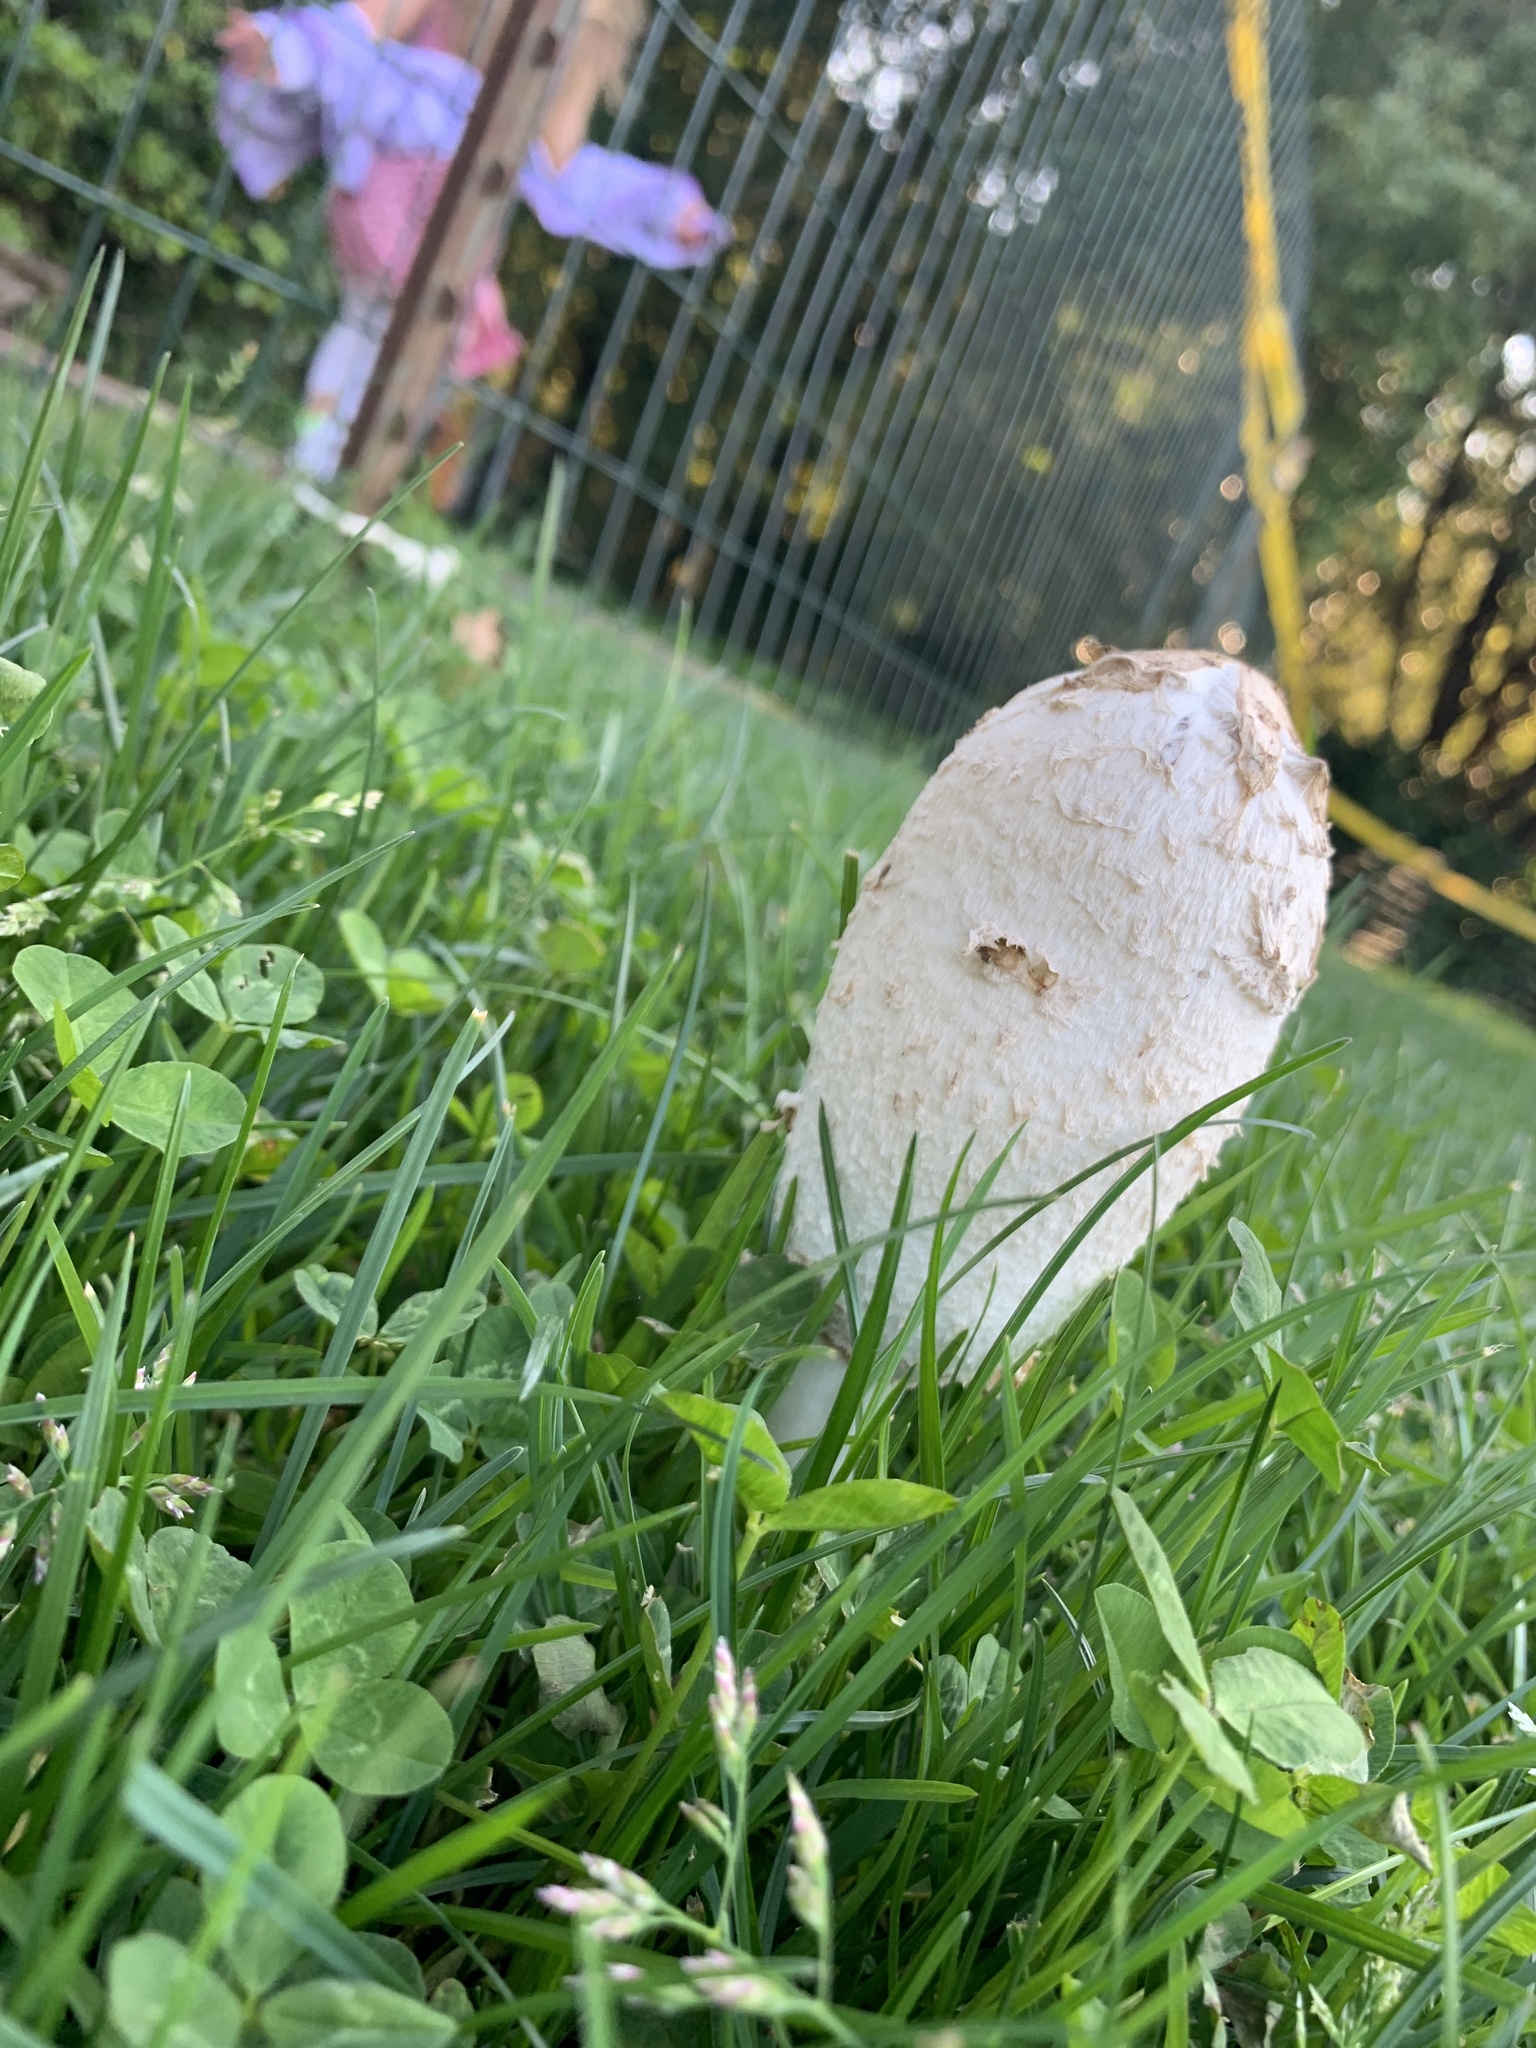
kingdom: Fungi
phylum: Basidiomycota
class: Agaricomycetes
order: Agaricales
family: Agaricaceae
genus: Coprinus
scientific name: Coprinus comatus
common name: Lawyer's wig
